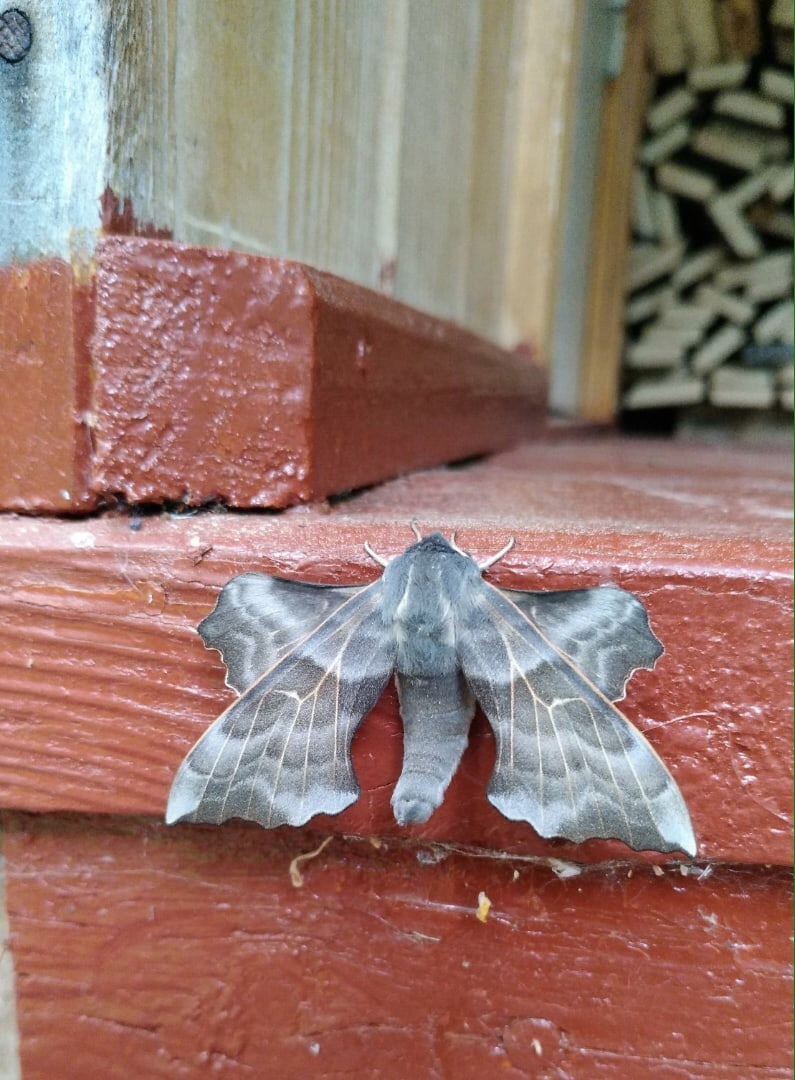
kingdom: Animalia
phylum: Arthropoda
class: Insecta
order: Lepidoptera
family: Sphingidae
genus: Laothoe
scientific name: Laothoe amurensis
